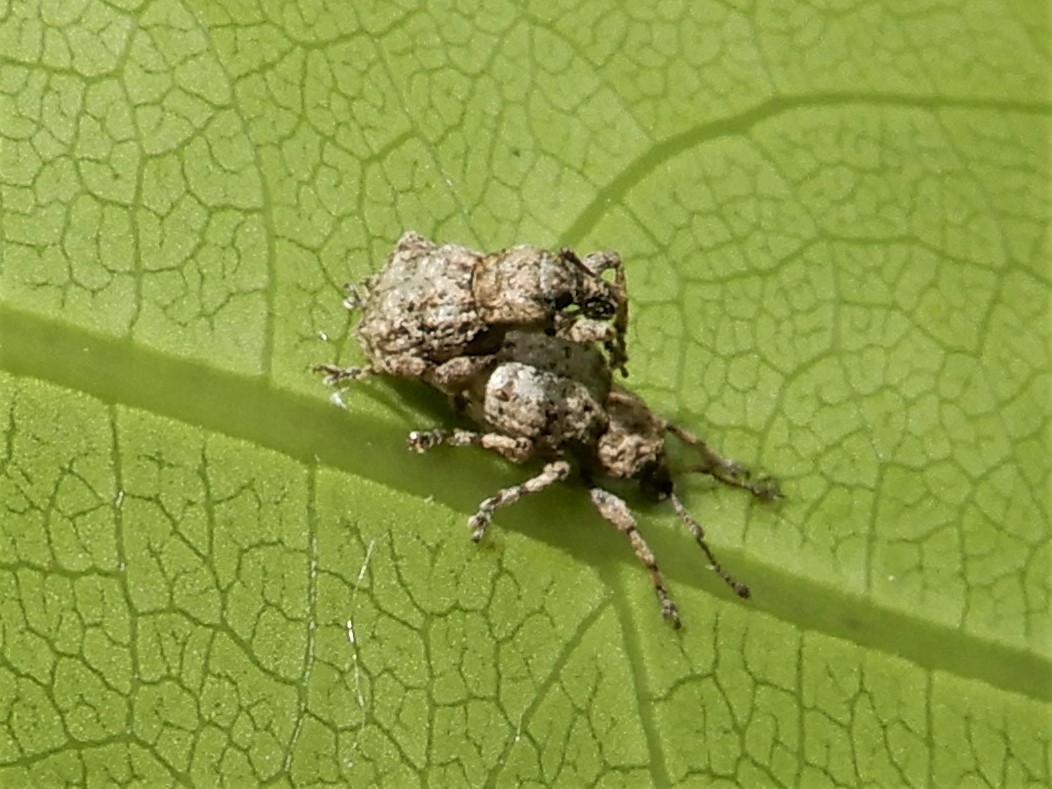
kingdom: Animalia
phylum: Arthropoda
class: Insecta
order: Coleoptera
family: Curculionidae
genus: Brachyolus
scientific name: Brachyolus punctatus
